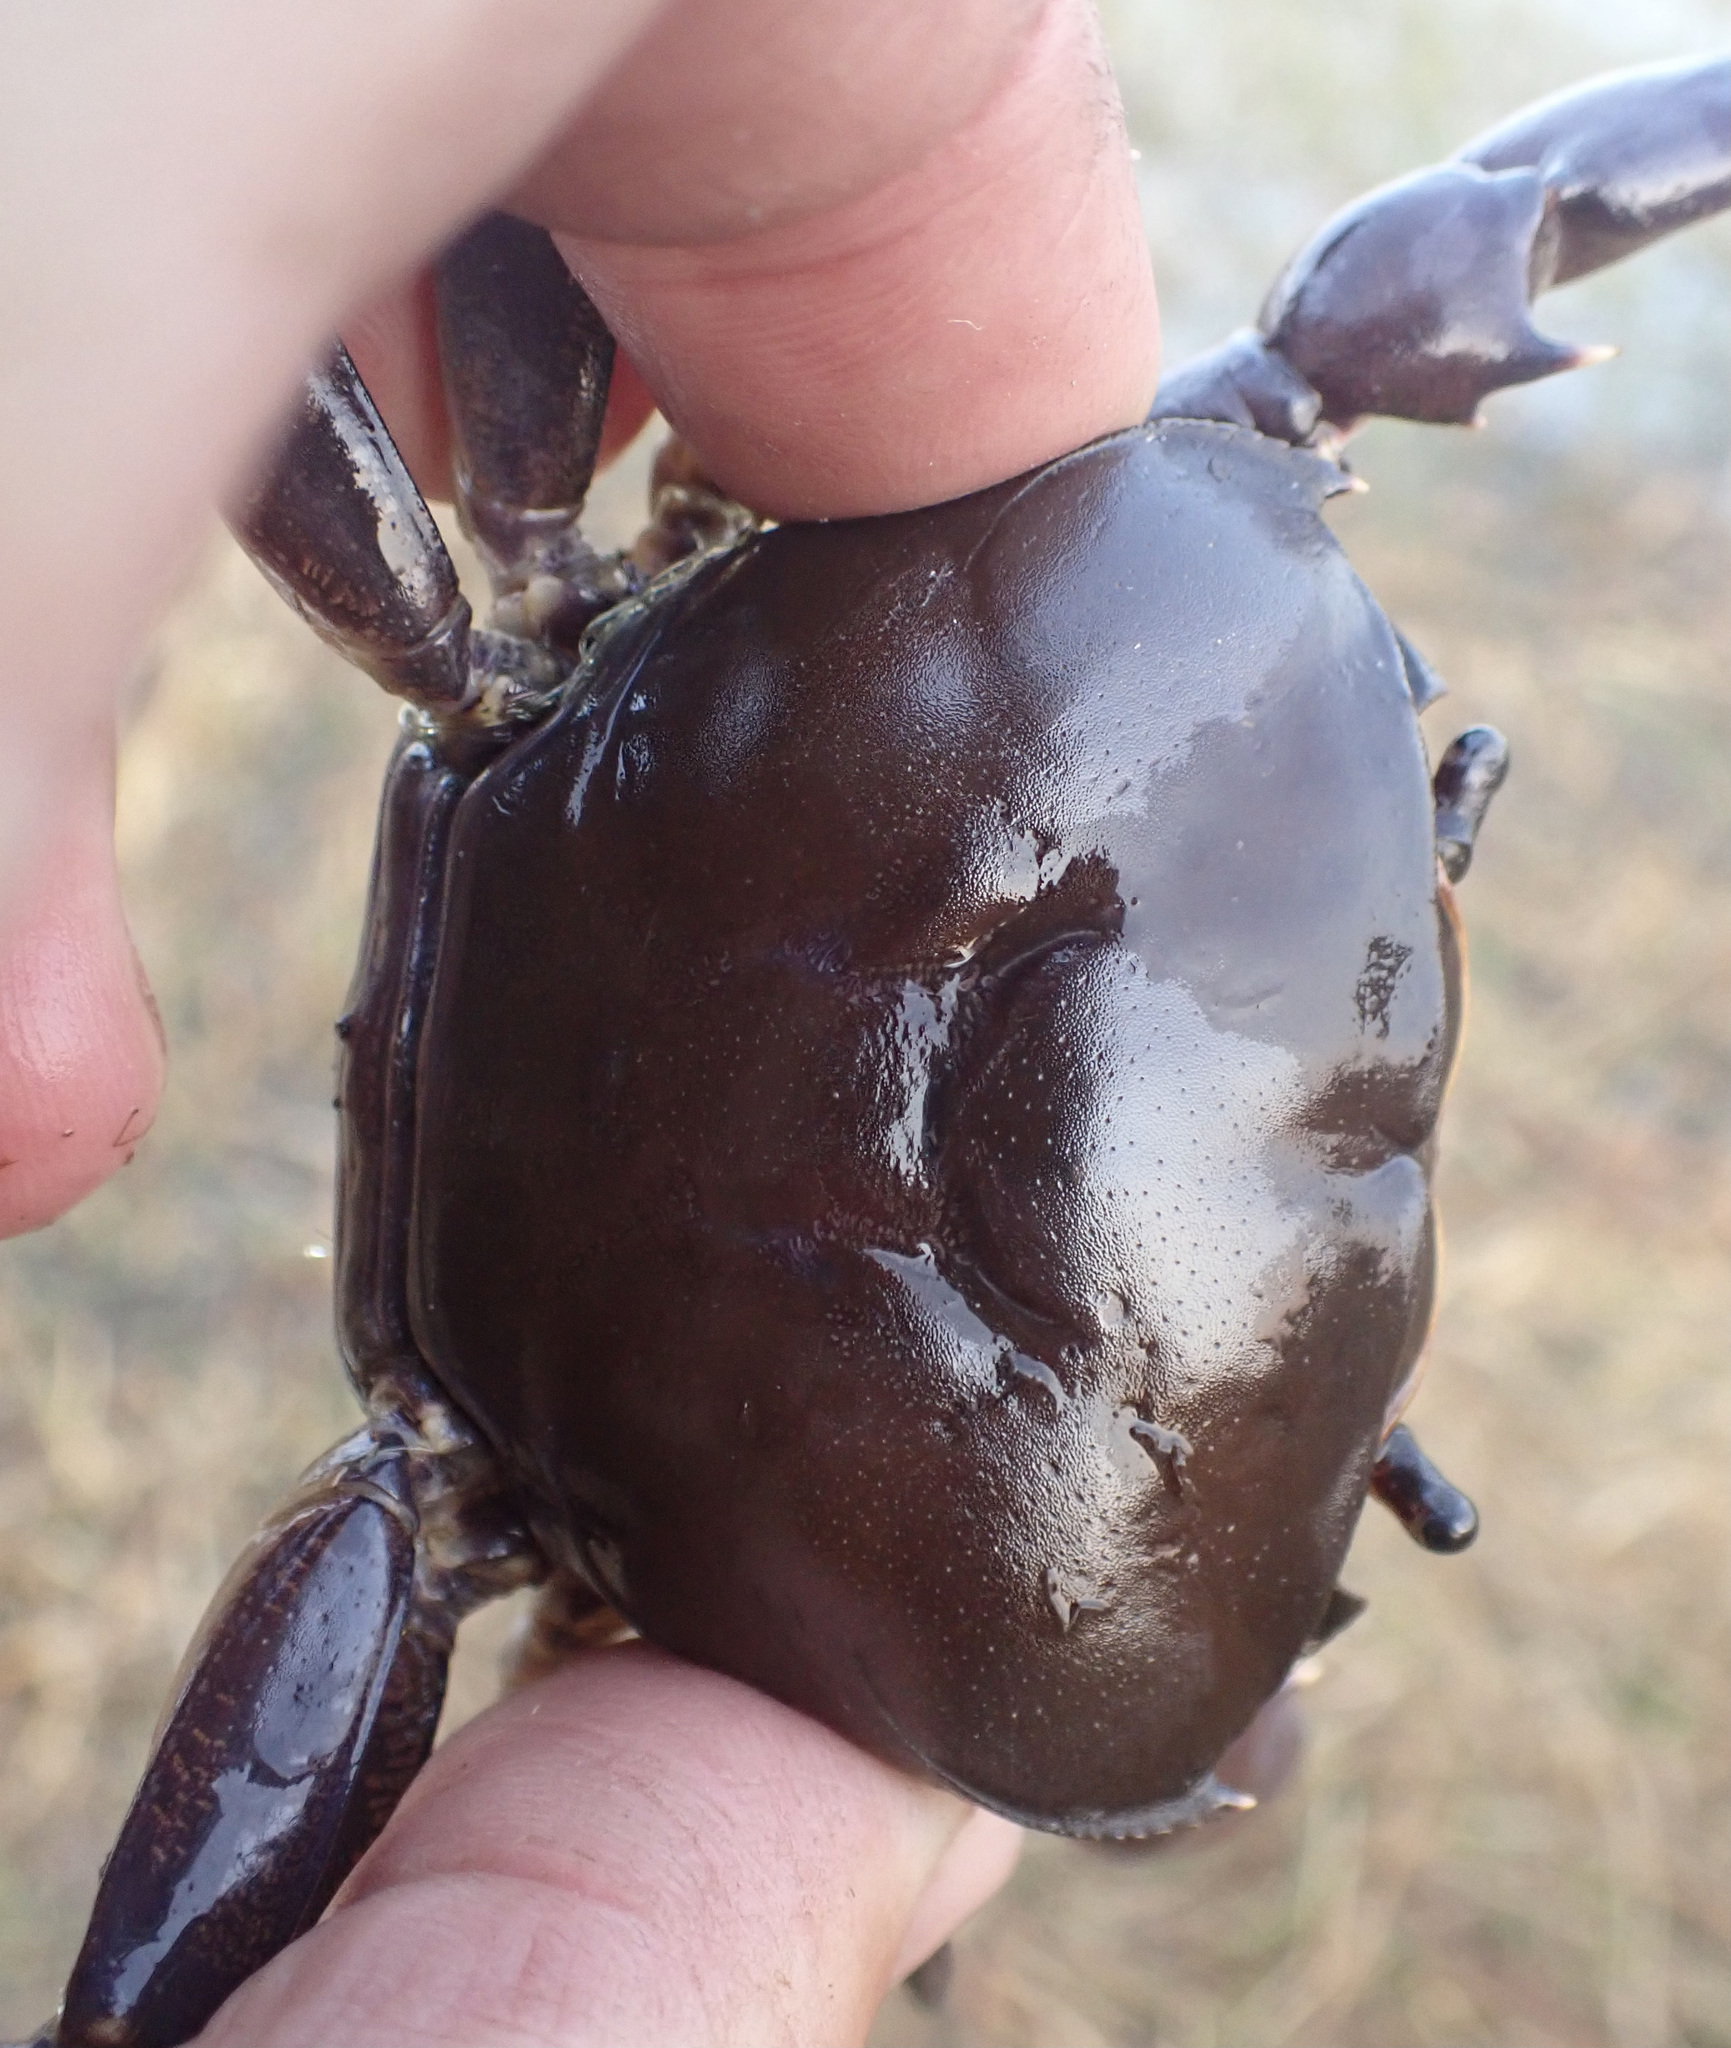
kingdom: Animalia
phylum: Arthropoda
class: Malacostraca
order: Decapoda
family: Potamonautidae
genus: Potamonautes
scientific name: Potamonautes bayonianus
